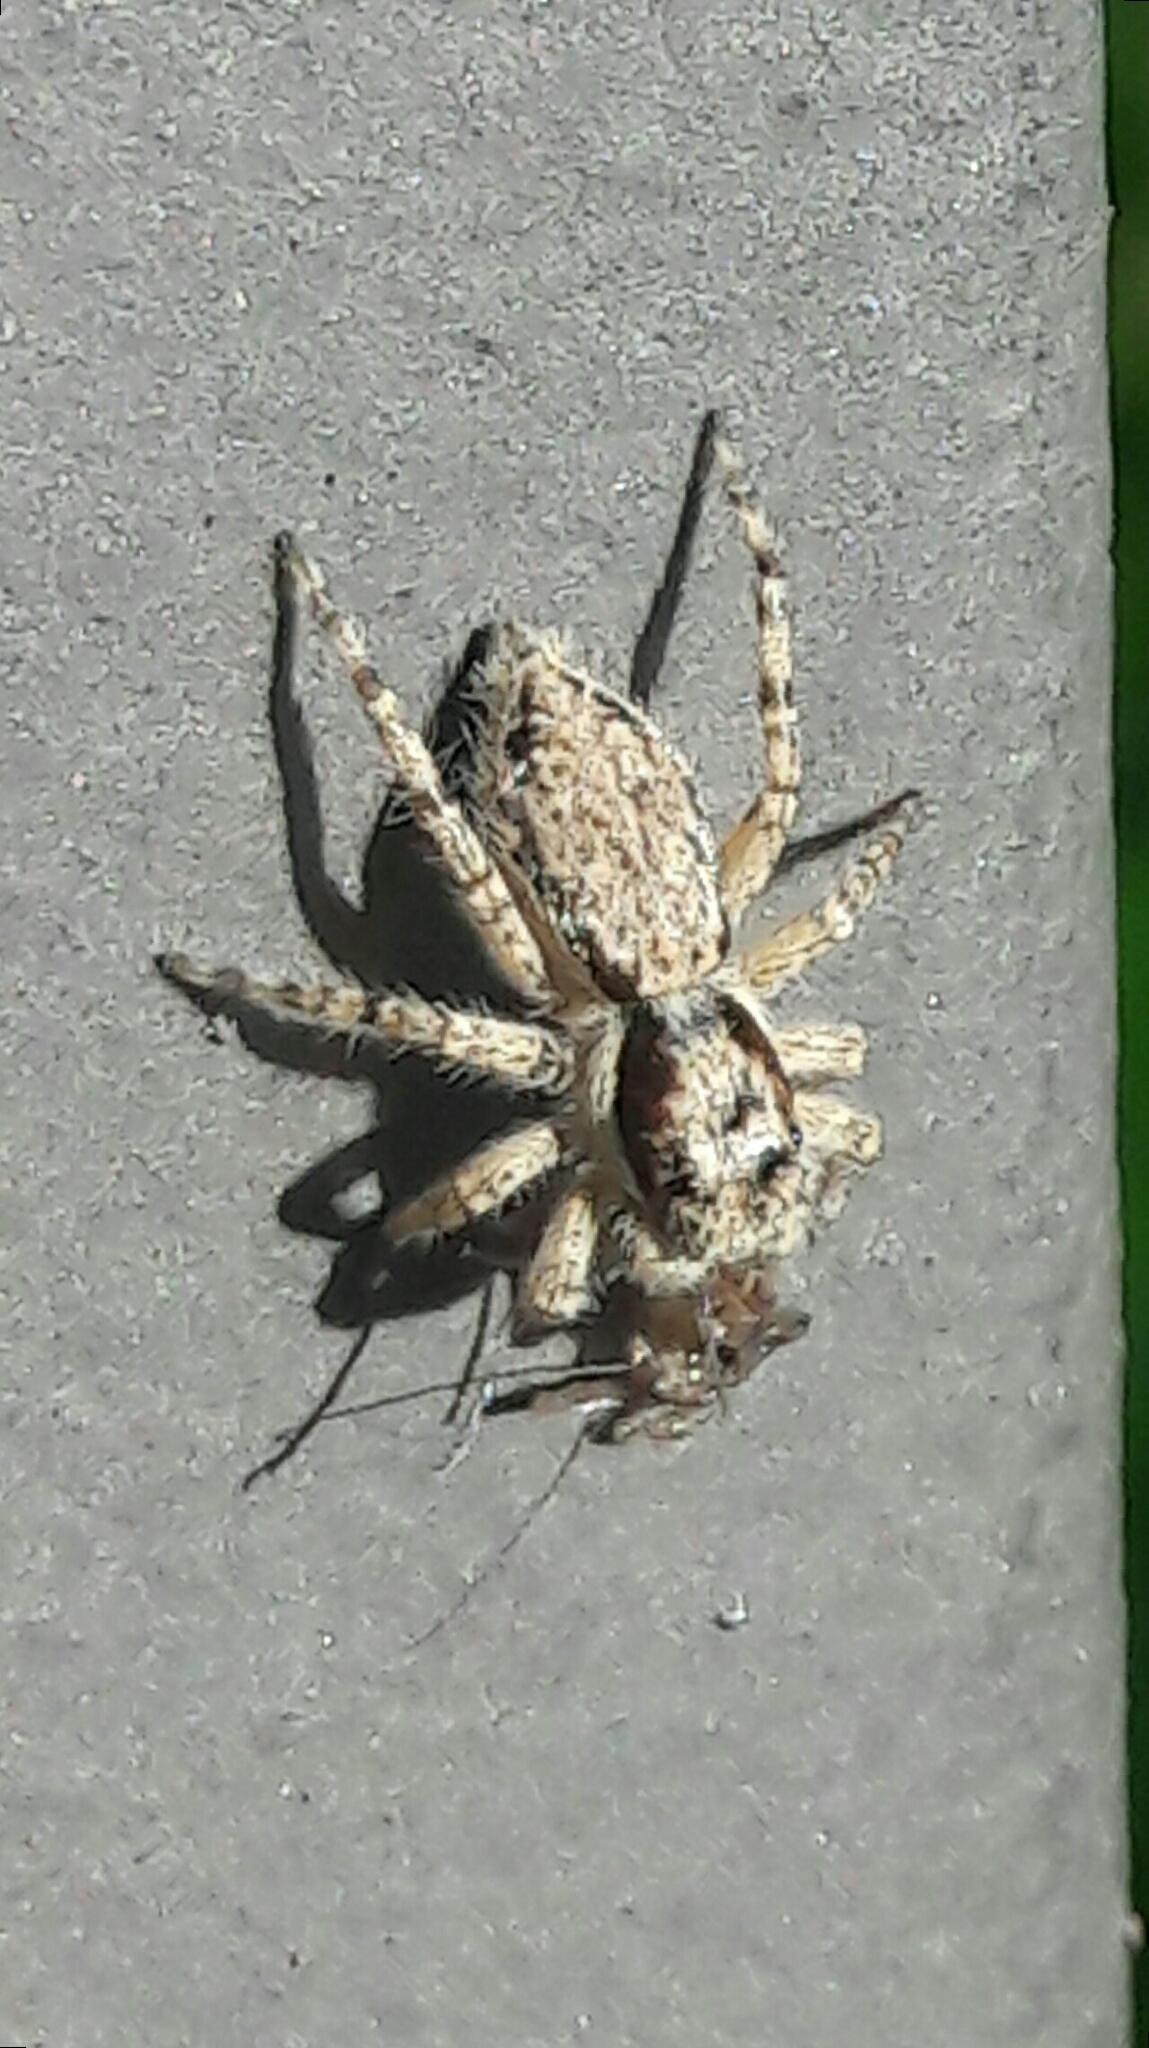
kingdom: Animalia
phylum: Arthropoda
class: Arachnida
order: Araneae
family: Salticidae
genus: Menemerus
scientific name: Menemerus bivittatus
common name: Gray wall jumper
